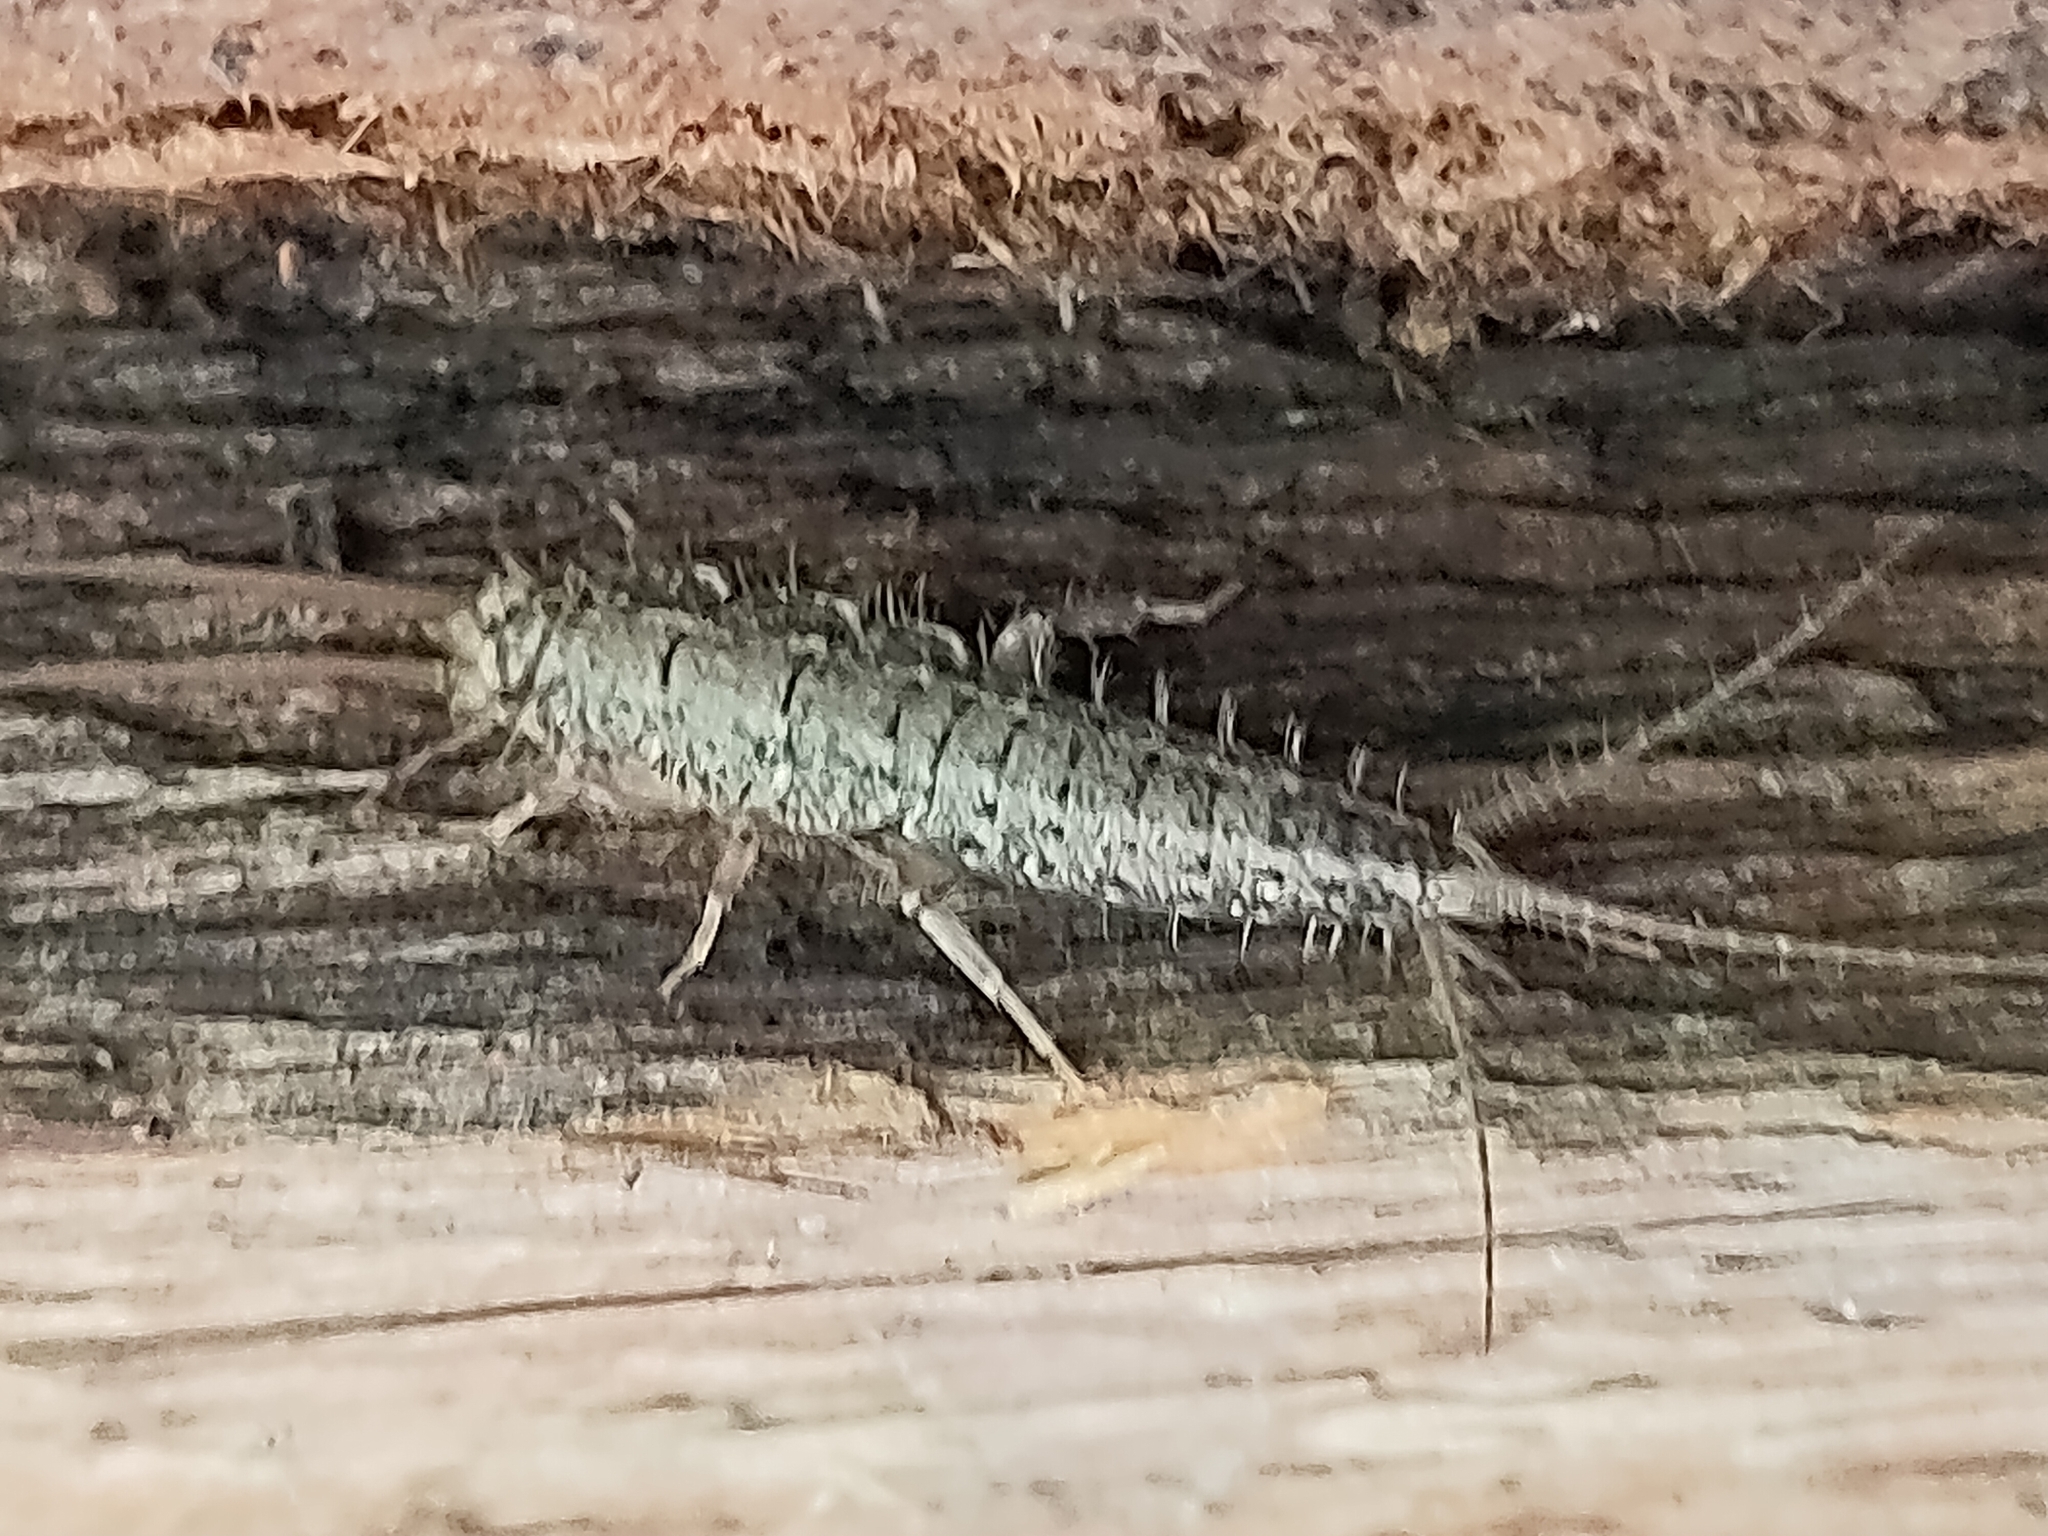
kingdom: Animalia
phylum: Arthropoda
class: Insecta
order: Zygentoma
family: Lepismatidae
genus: Ctenolepisma
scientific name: Ctenolepisma lineata
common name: Four-lined silverfish
